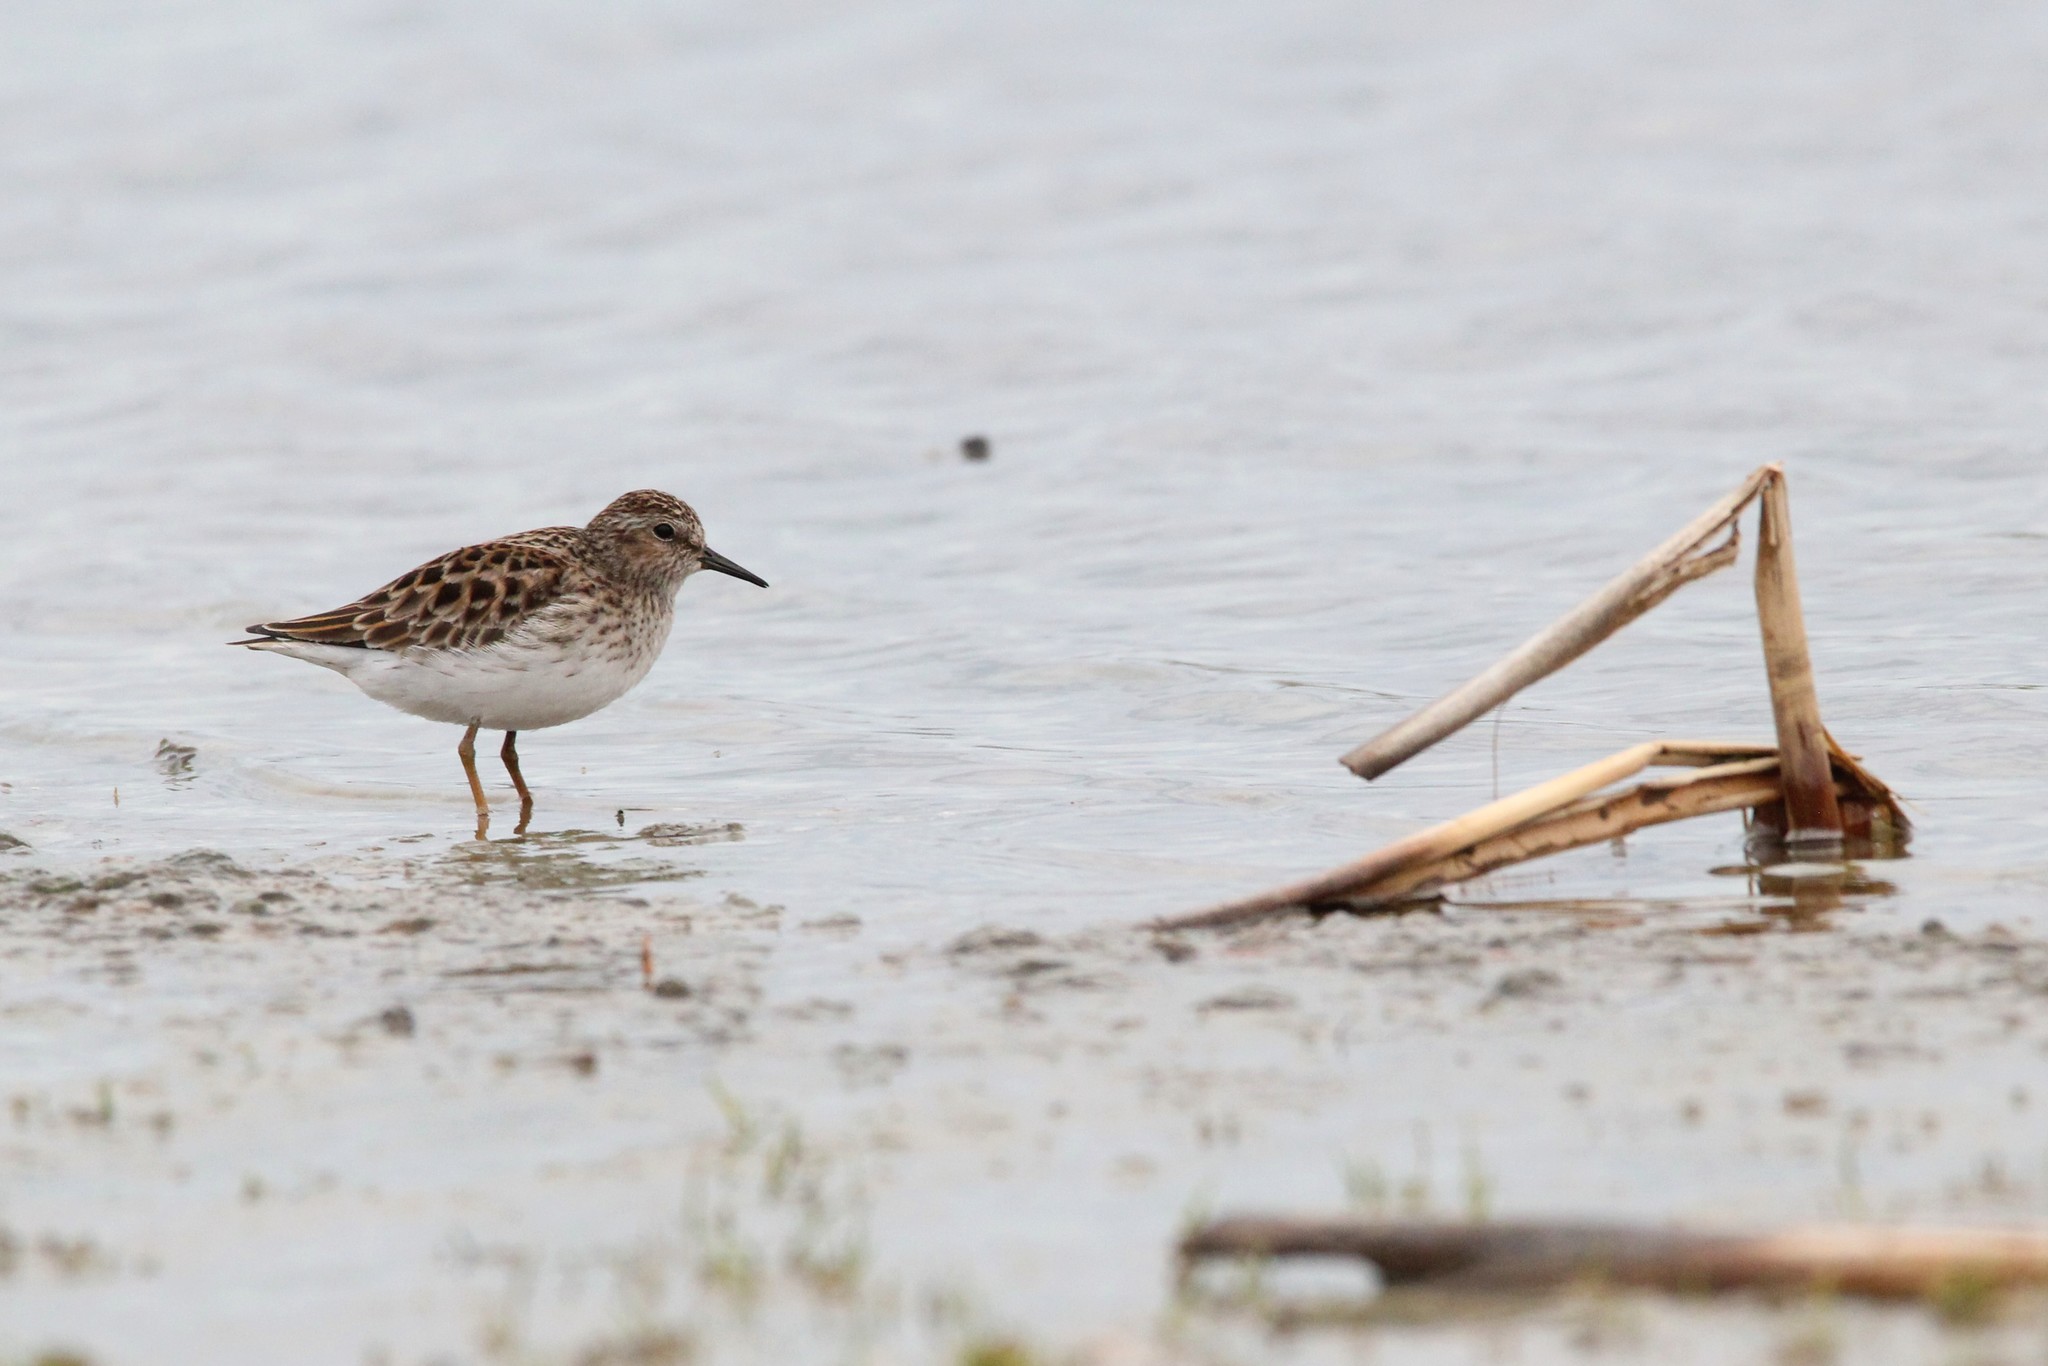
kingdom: Animalia
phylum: Chordata
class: Aves
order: Charadriiformes
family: Scolopacidae
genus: Calidris
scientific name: Calidris minutilla
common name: Least sandpiper
